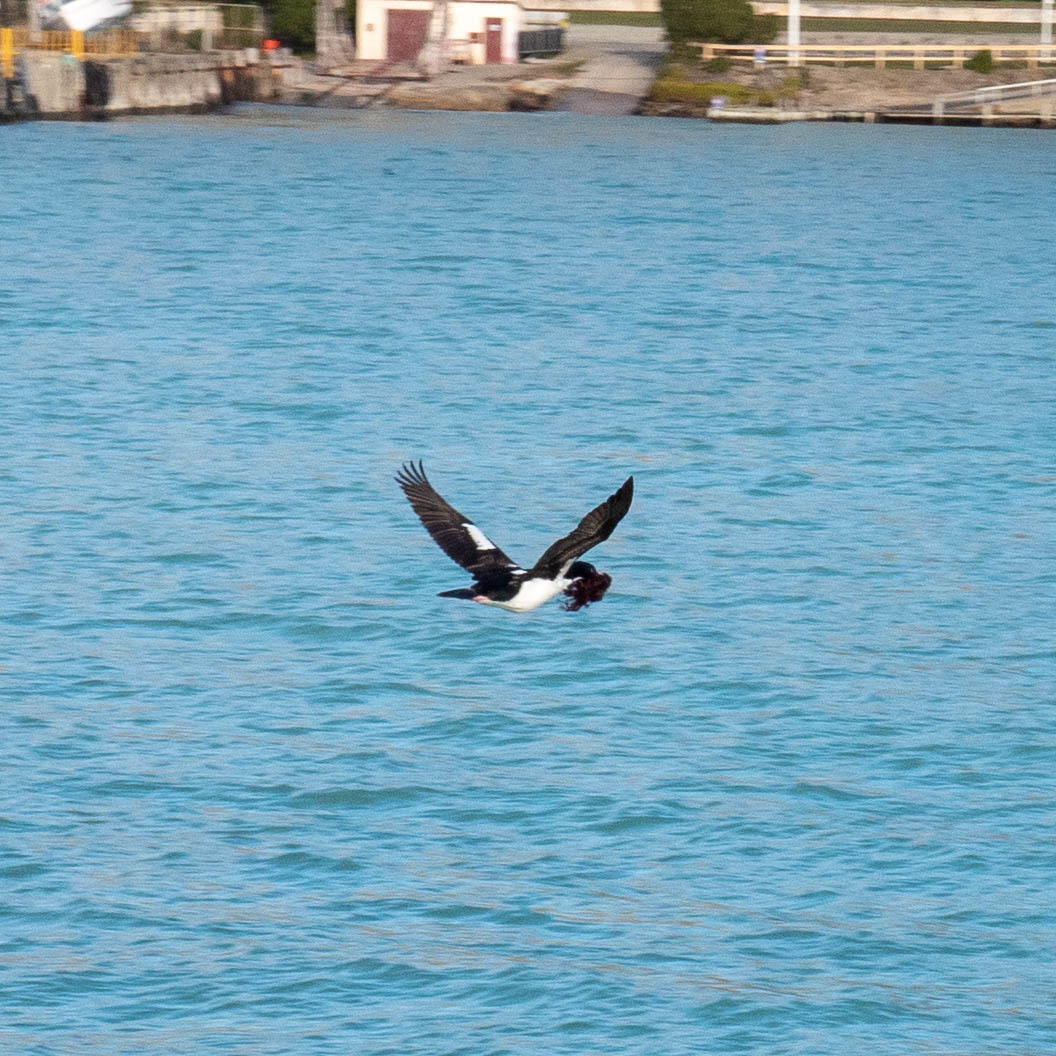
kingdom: Animalia
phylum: Chordata
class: Aves
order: Suliformes
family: Phalacrocoracidae
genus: Leucocarbo
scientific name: Leucocarbo chalconotus
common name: Stewart shag
